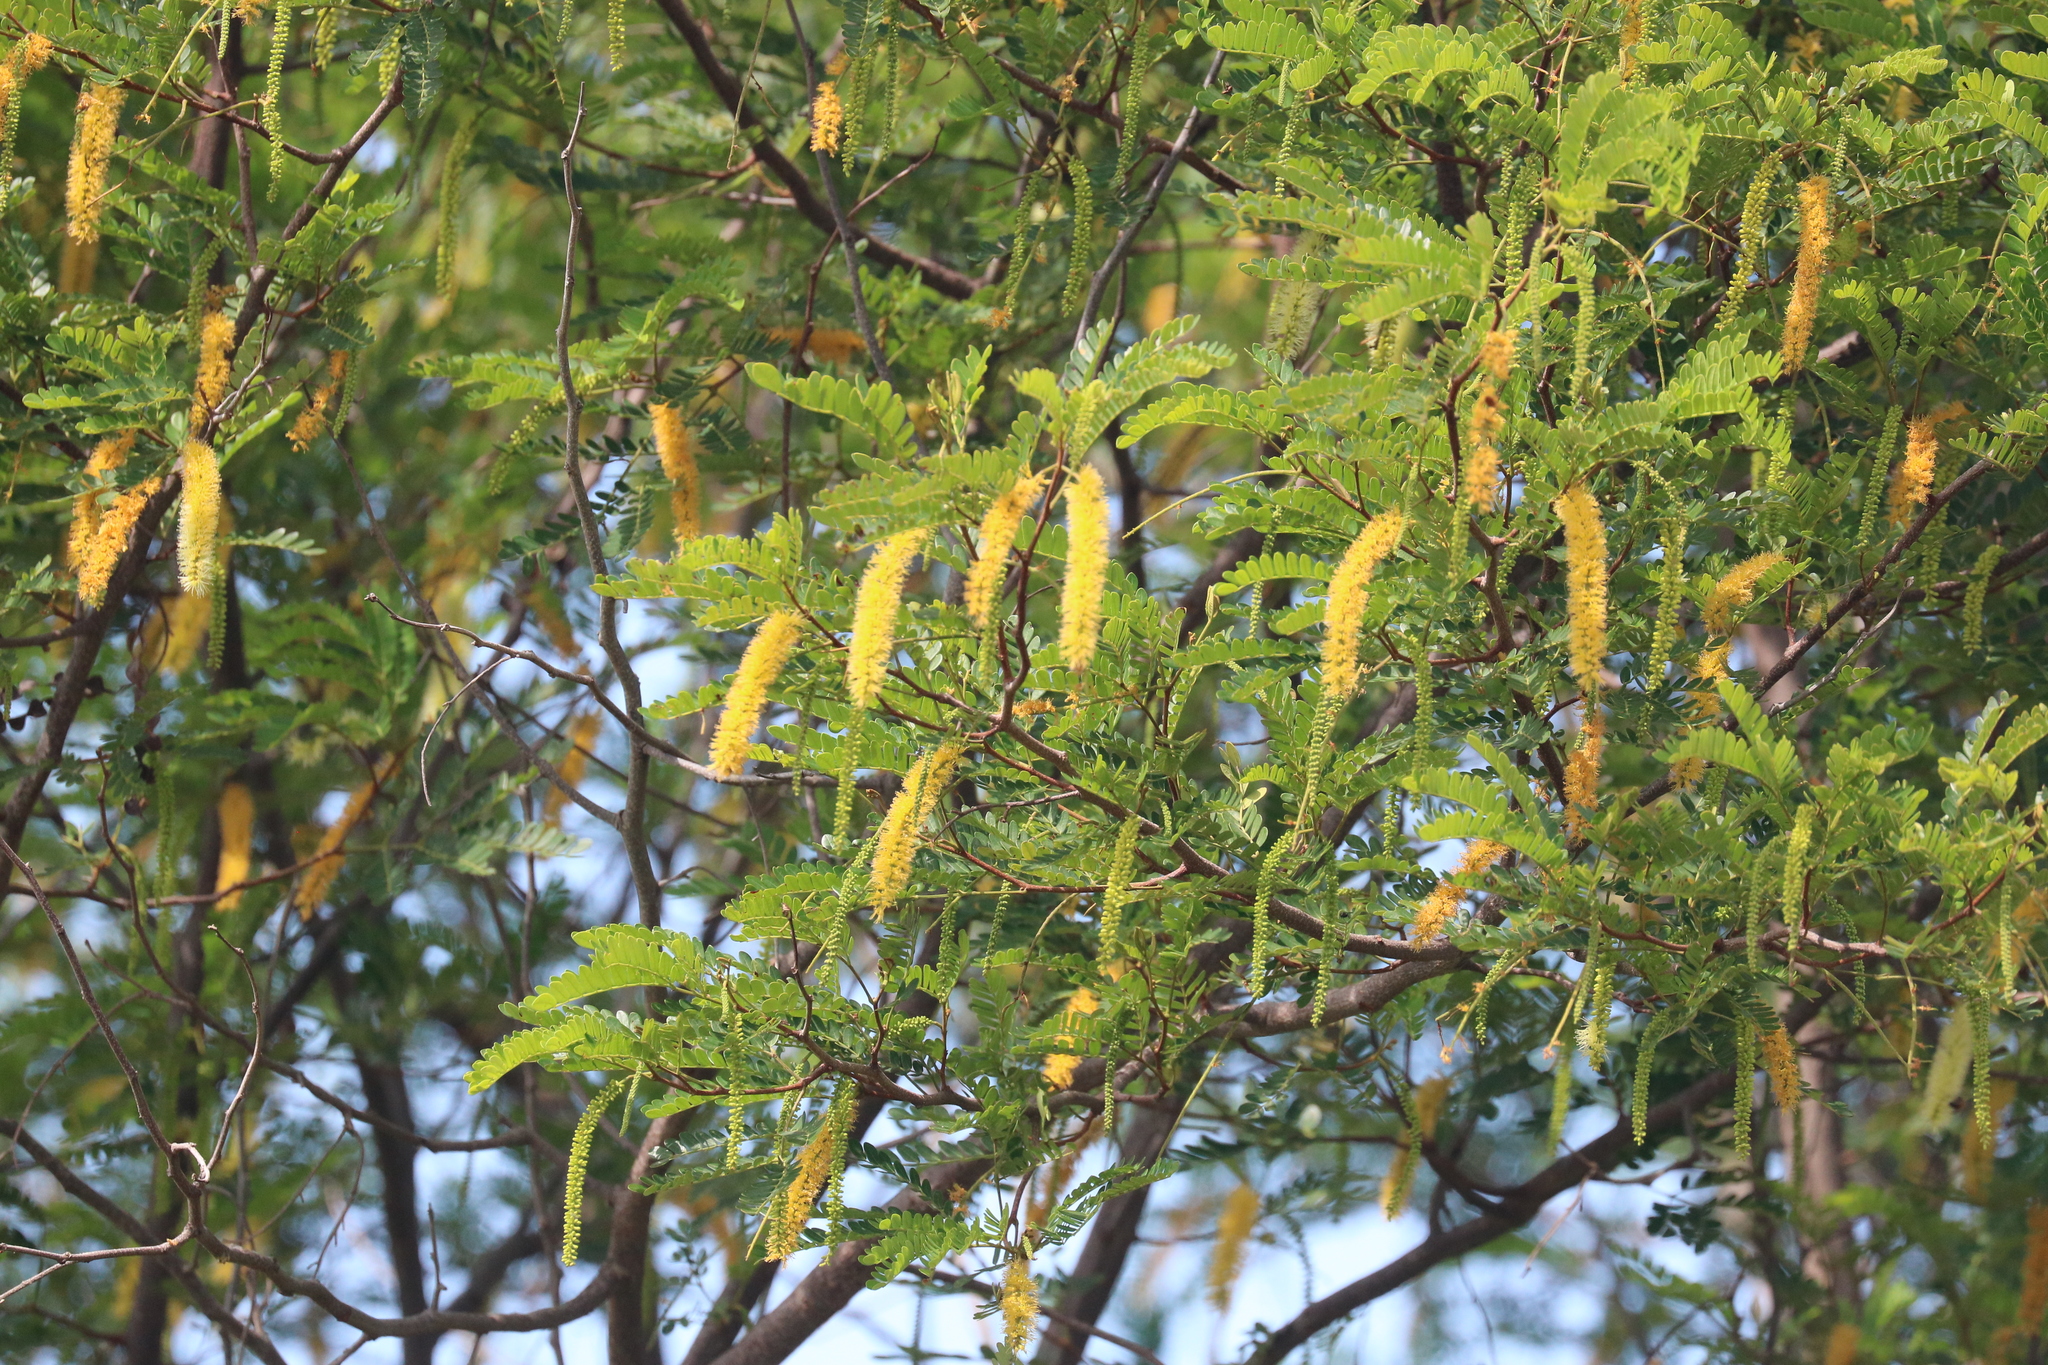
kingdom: Plantae
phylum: Tracheophyta
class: Magnoliopsida
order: Fabales
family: Fabaceae
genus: Pityrocarpa
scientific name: Pityrocarpa moniliformis
